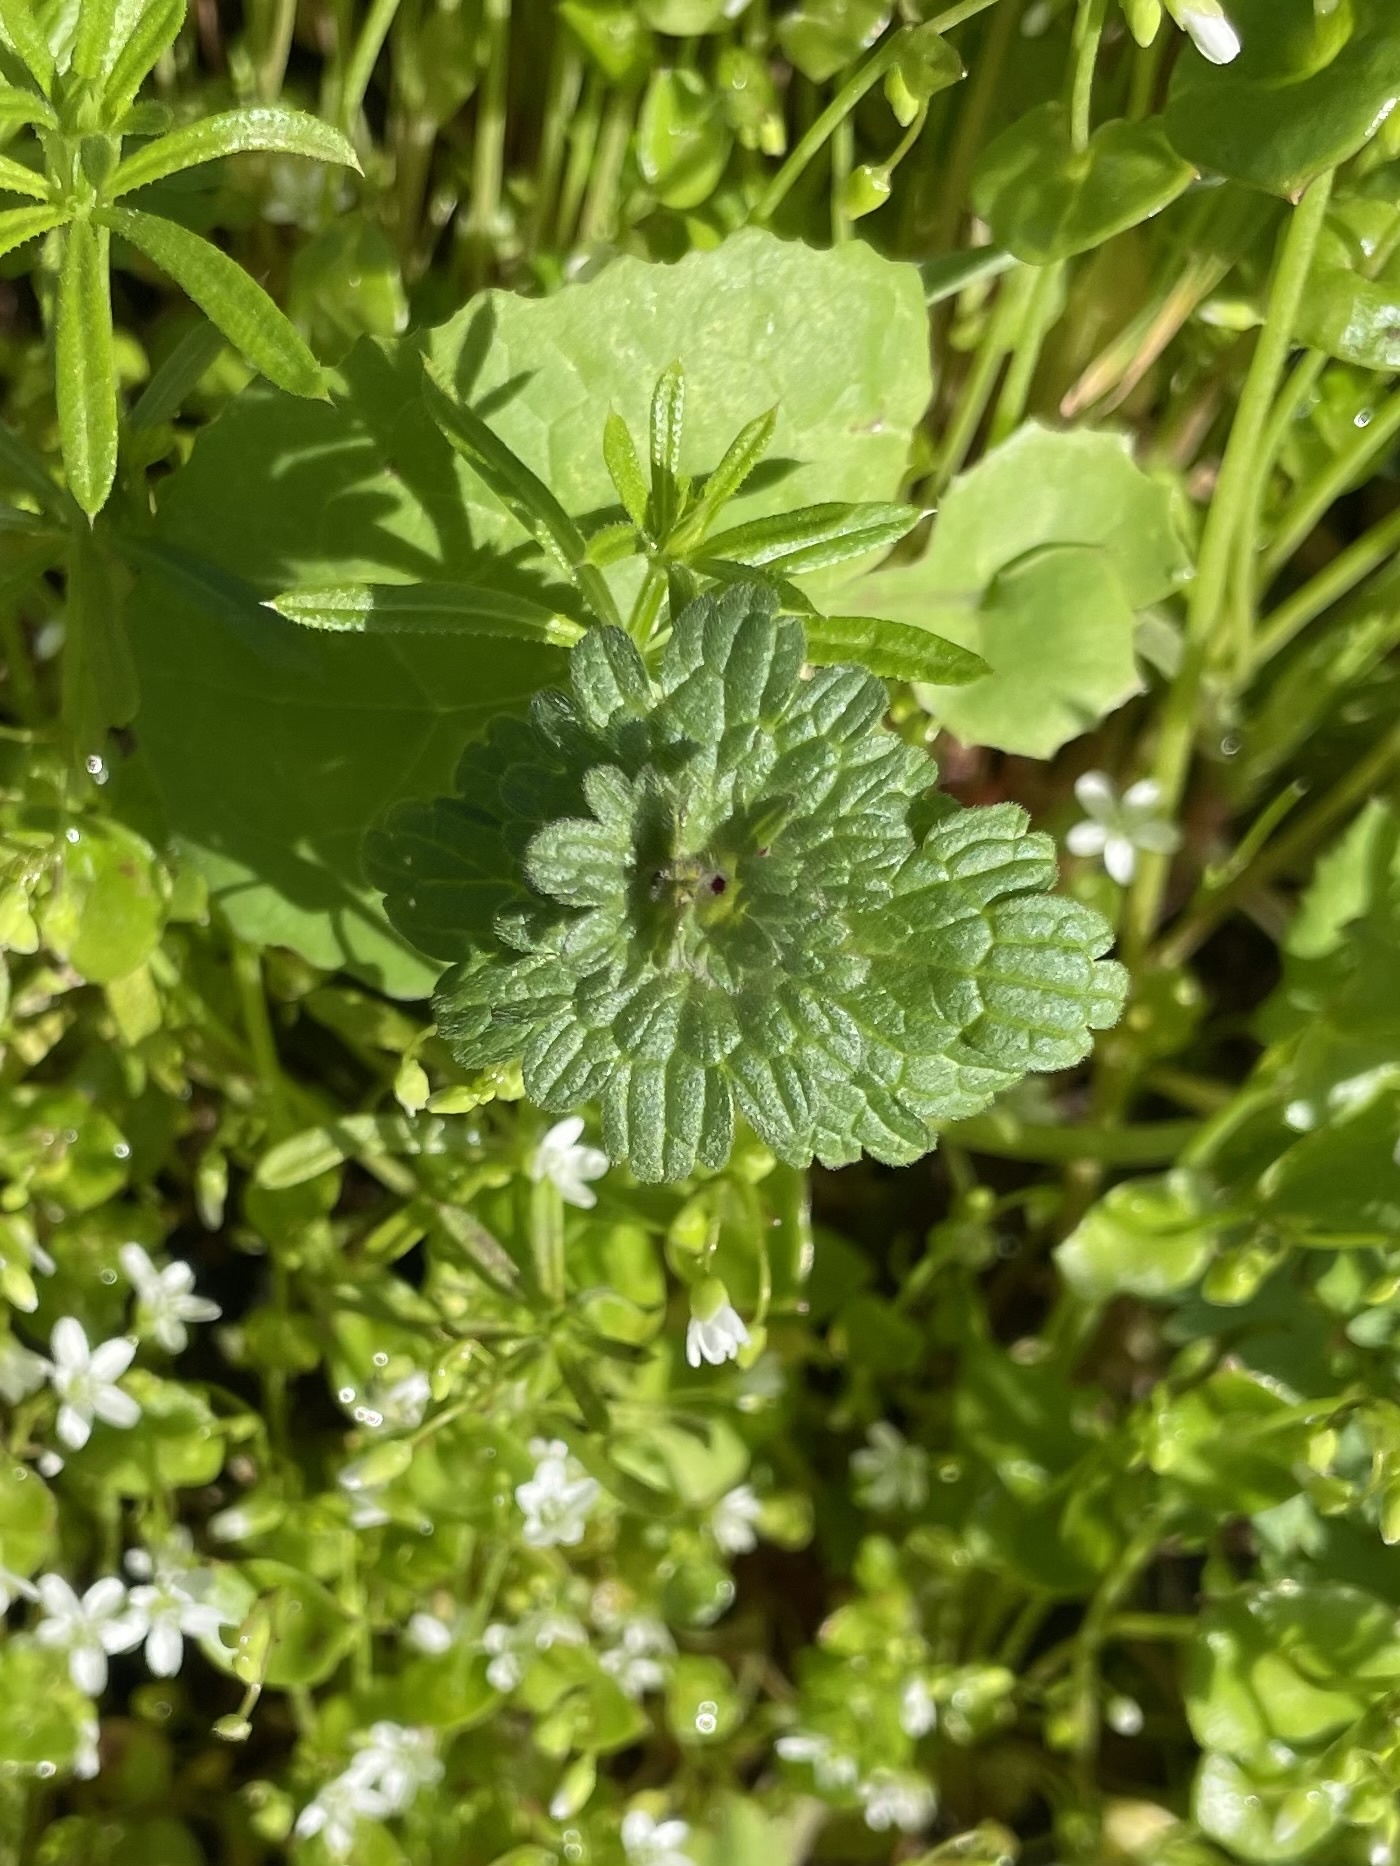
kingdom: Plantae
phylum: Tracheophyta
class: Magnoliopsida
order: Lamiales
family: Lamiaceae
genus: Lamium
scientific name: Lamium amplexicaule
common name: Henbit dead-nettle
